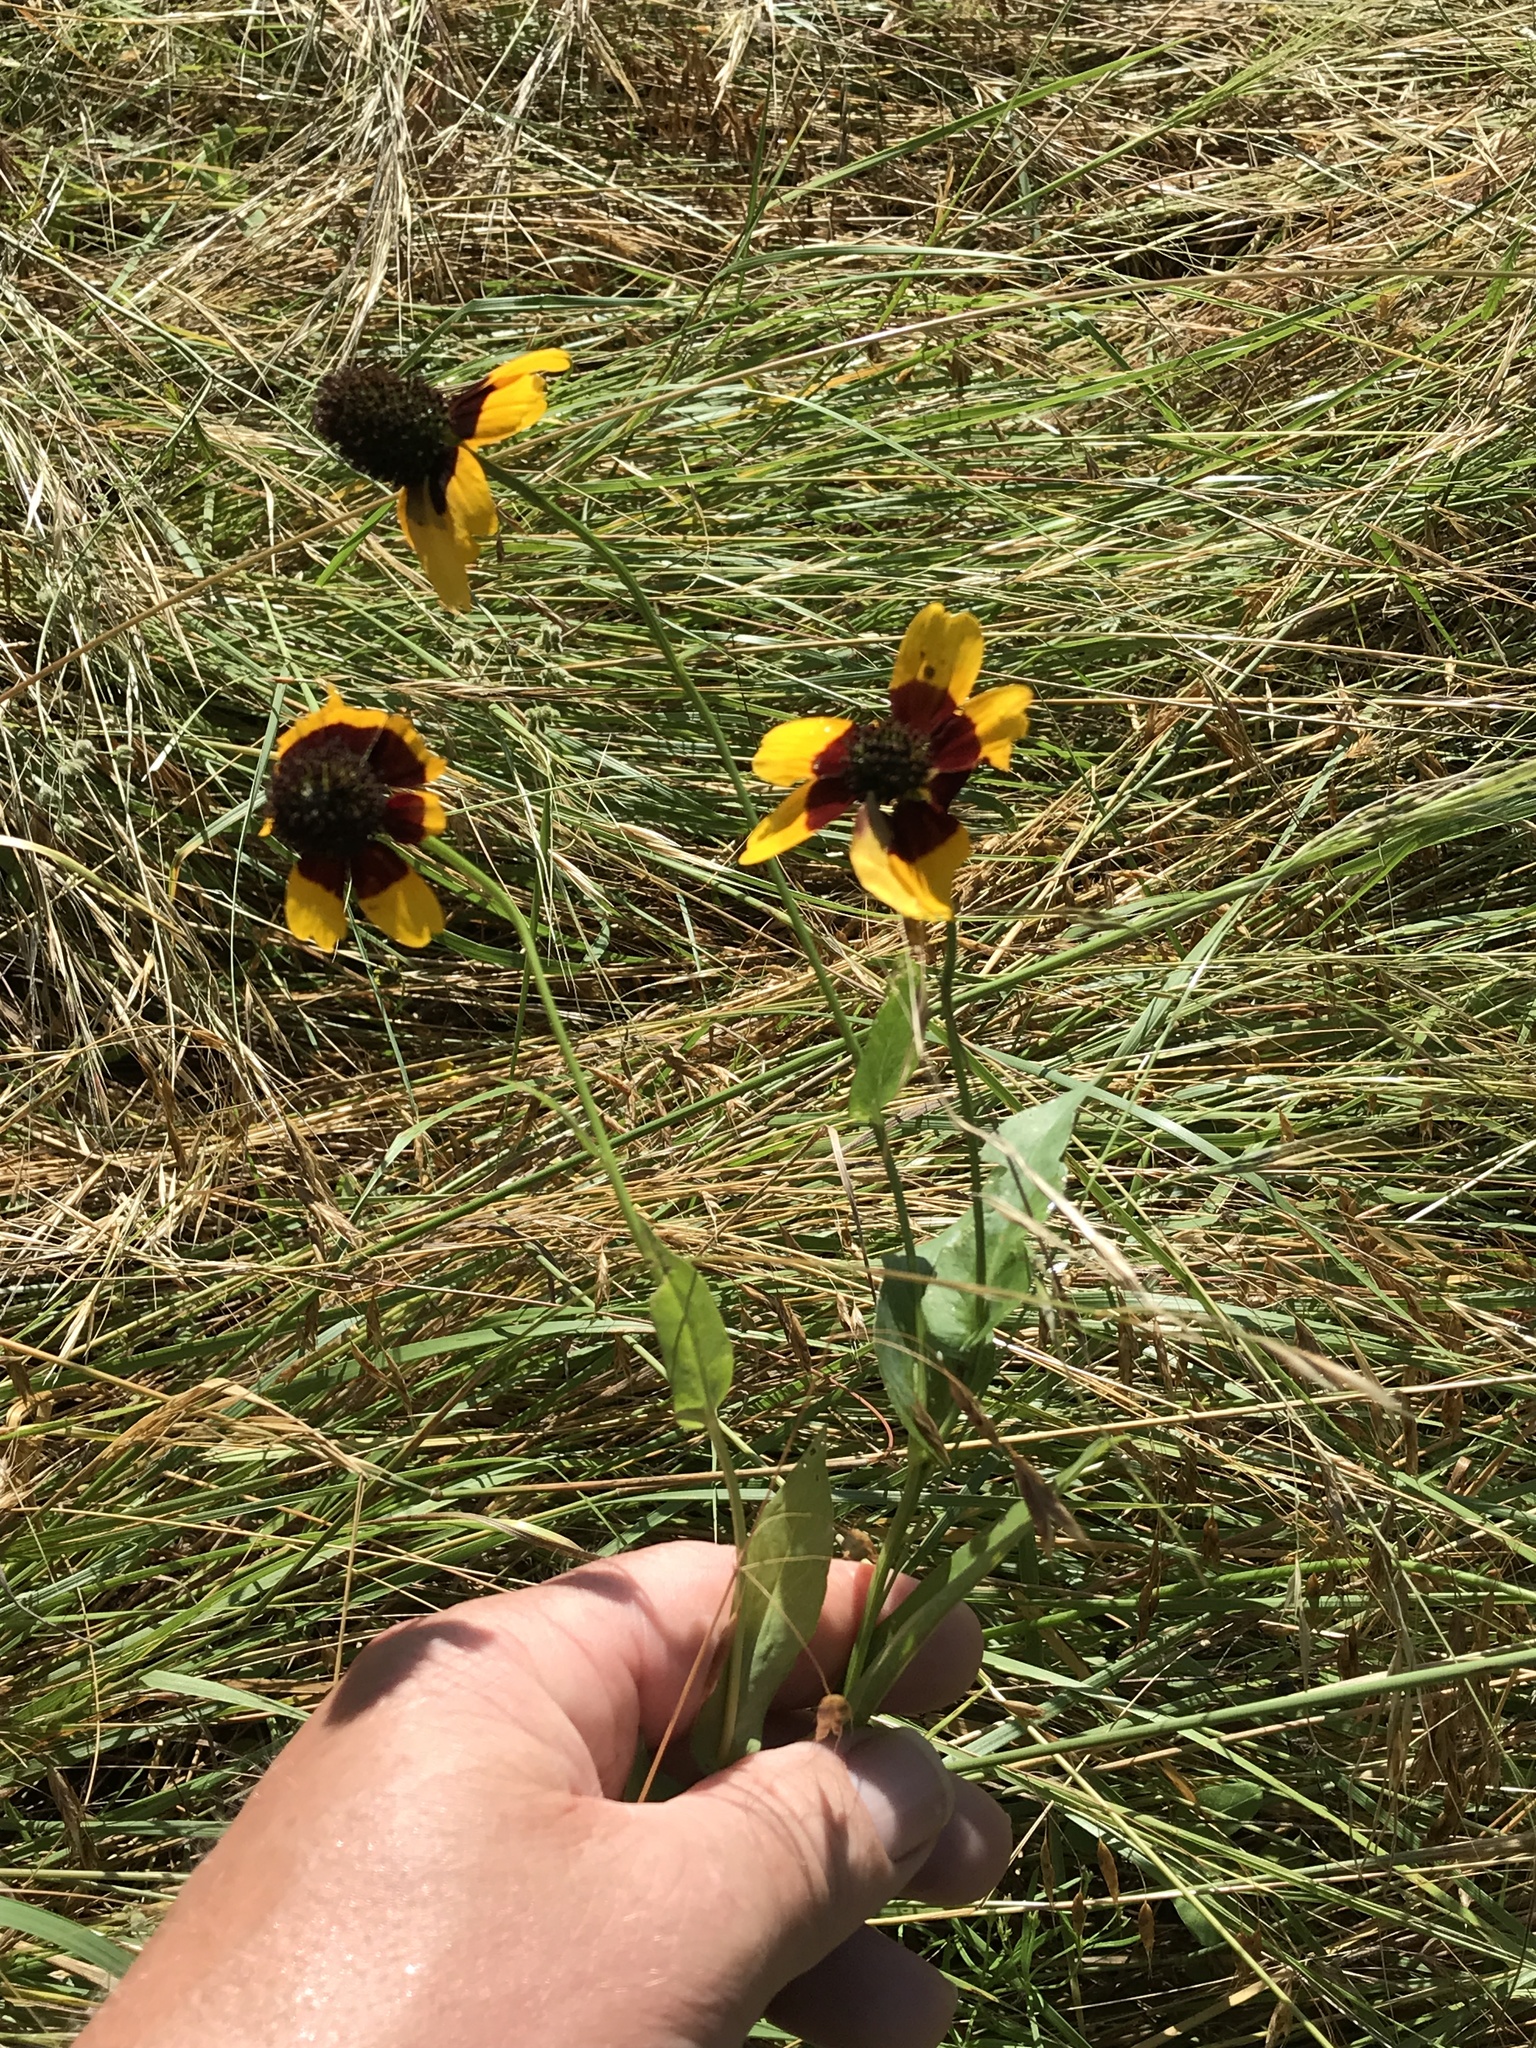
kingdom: Plantae
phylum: Tracheophyta
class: Magnoliopsida
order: Asterales
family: Asteraceae
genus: Rudbeckia
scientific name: Rudbeckia amplexicaulis
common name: Clasping-leaf coneflower
